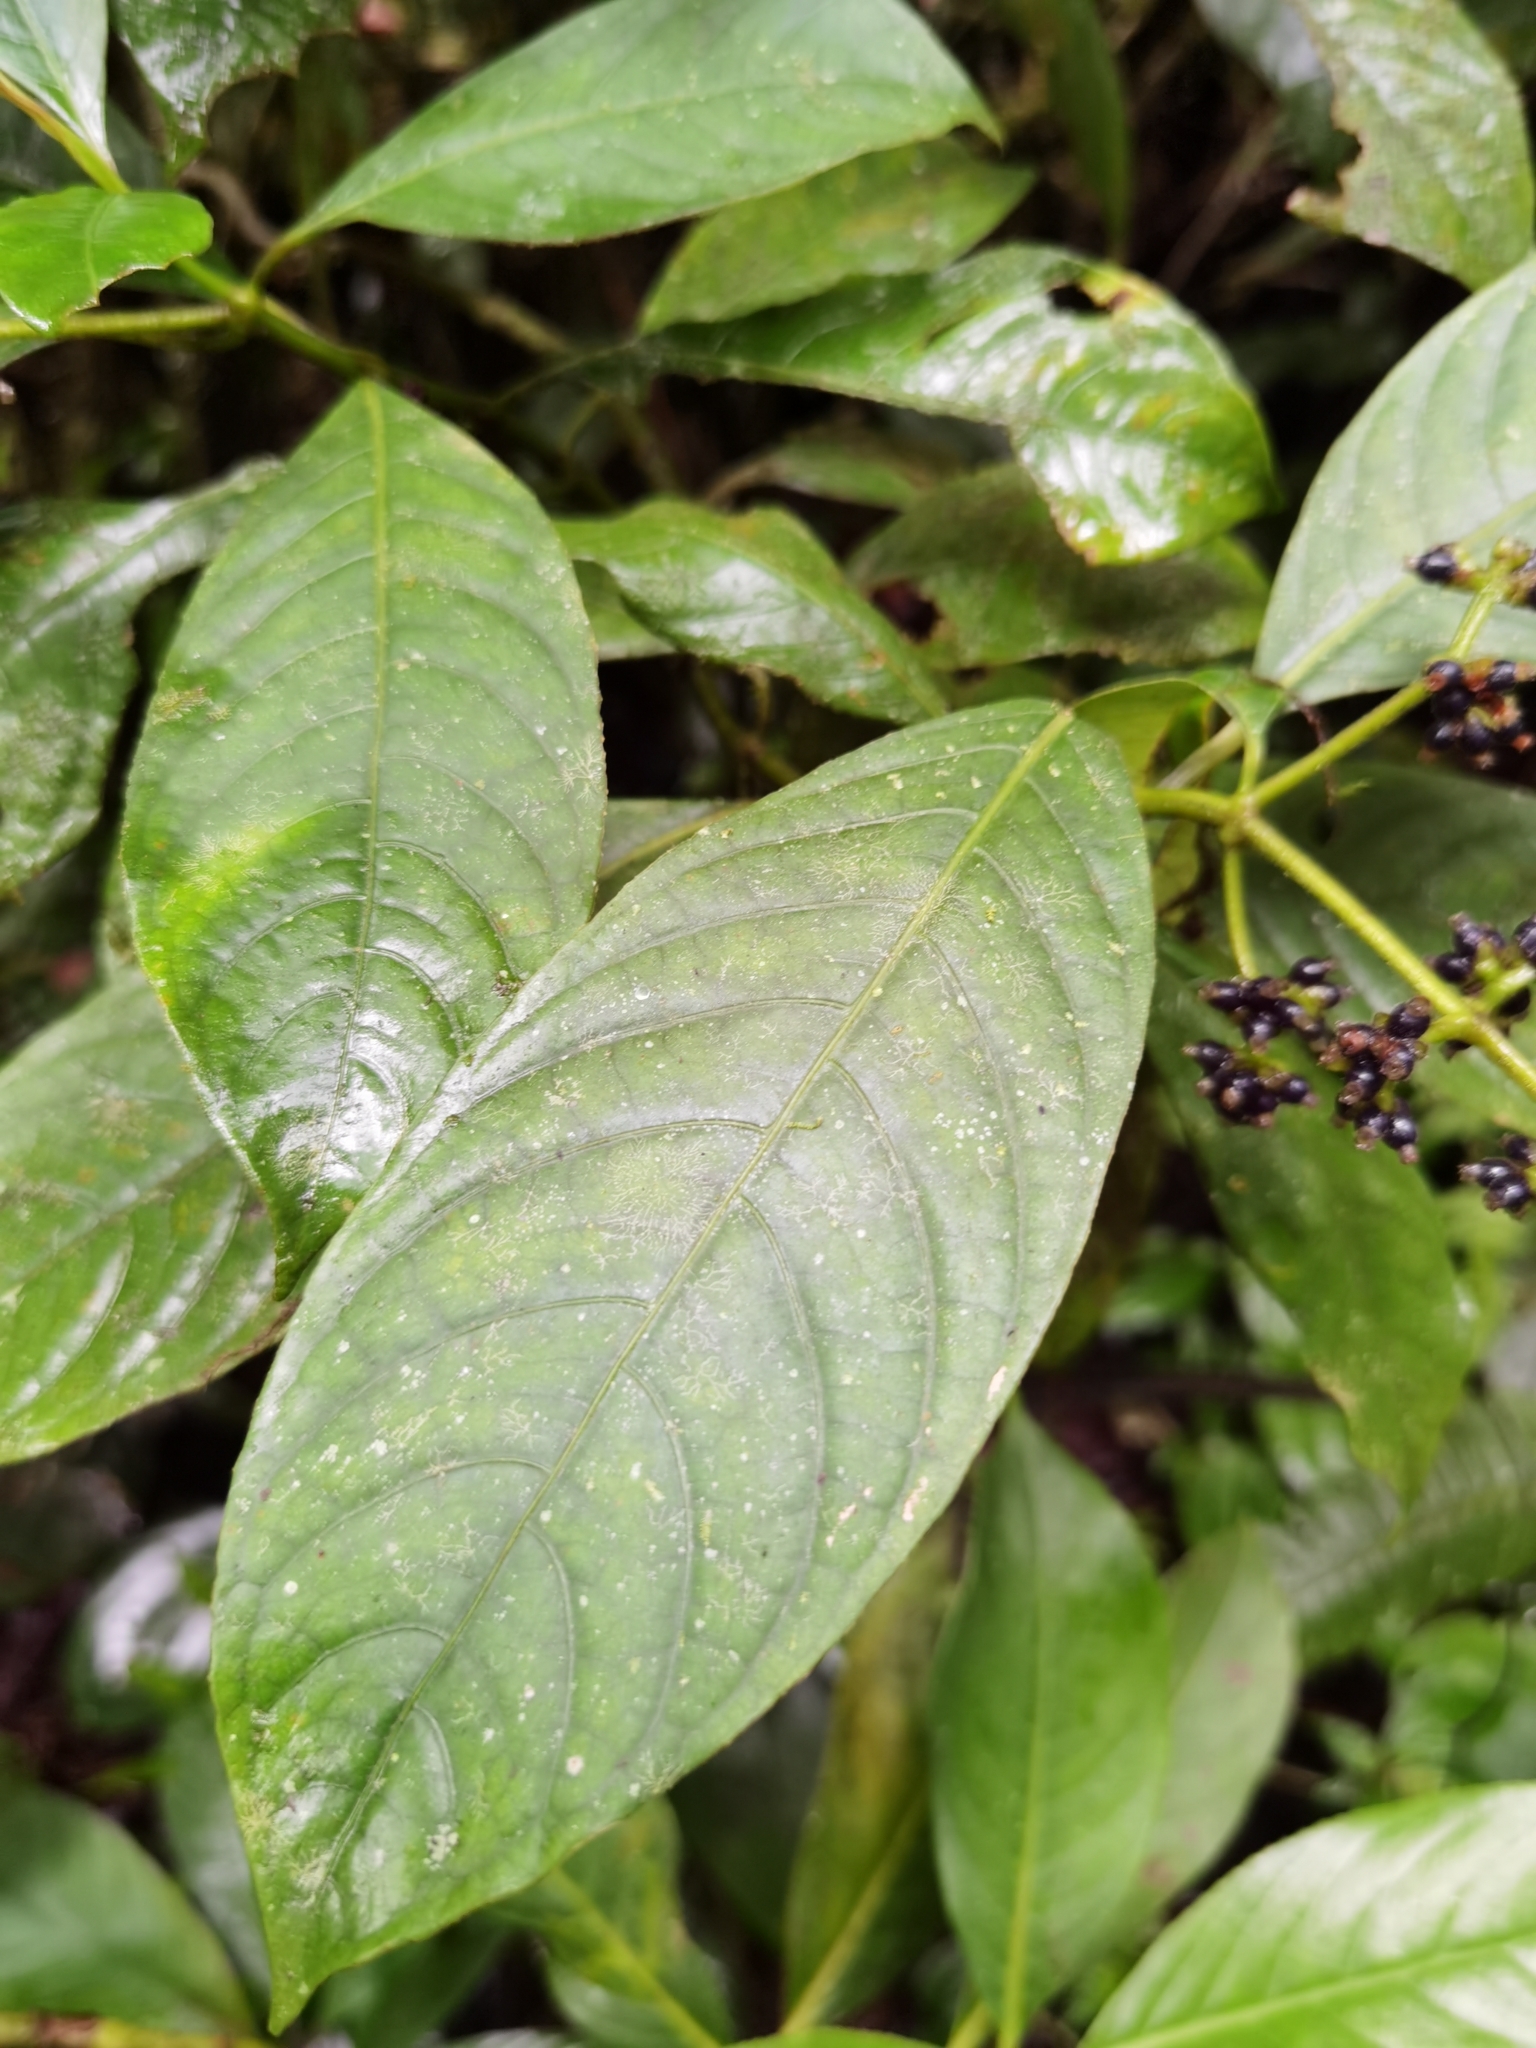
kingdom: Plantae
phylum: Tracheophyta
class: Magnoliopsida
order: Gentianales
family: Rubiaceae
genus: Palicourea
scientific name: Palicourea brachiata
